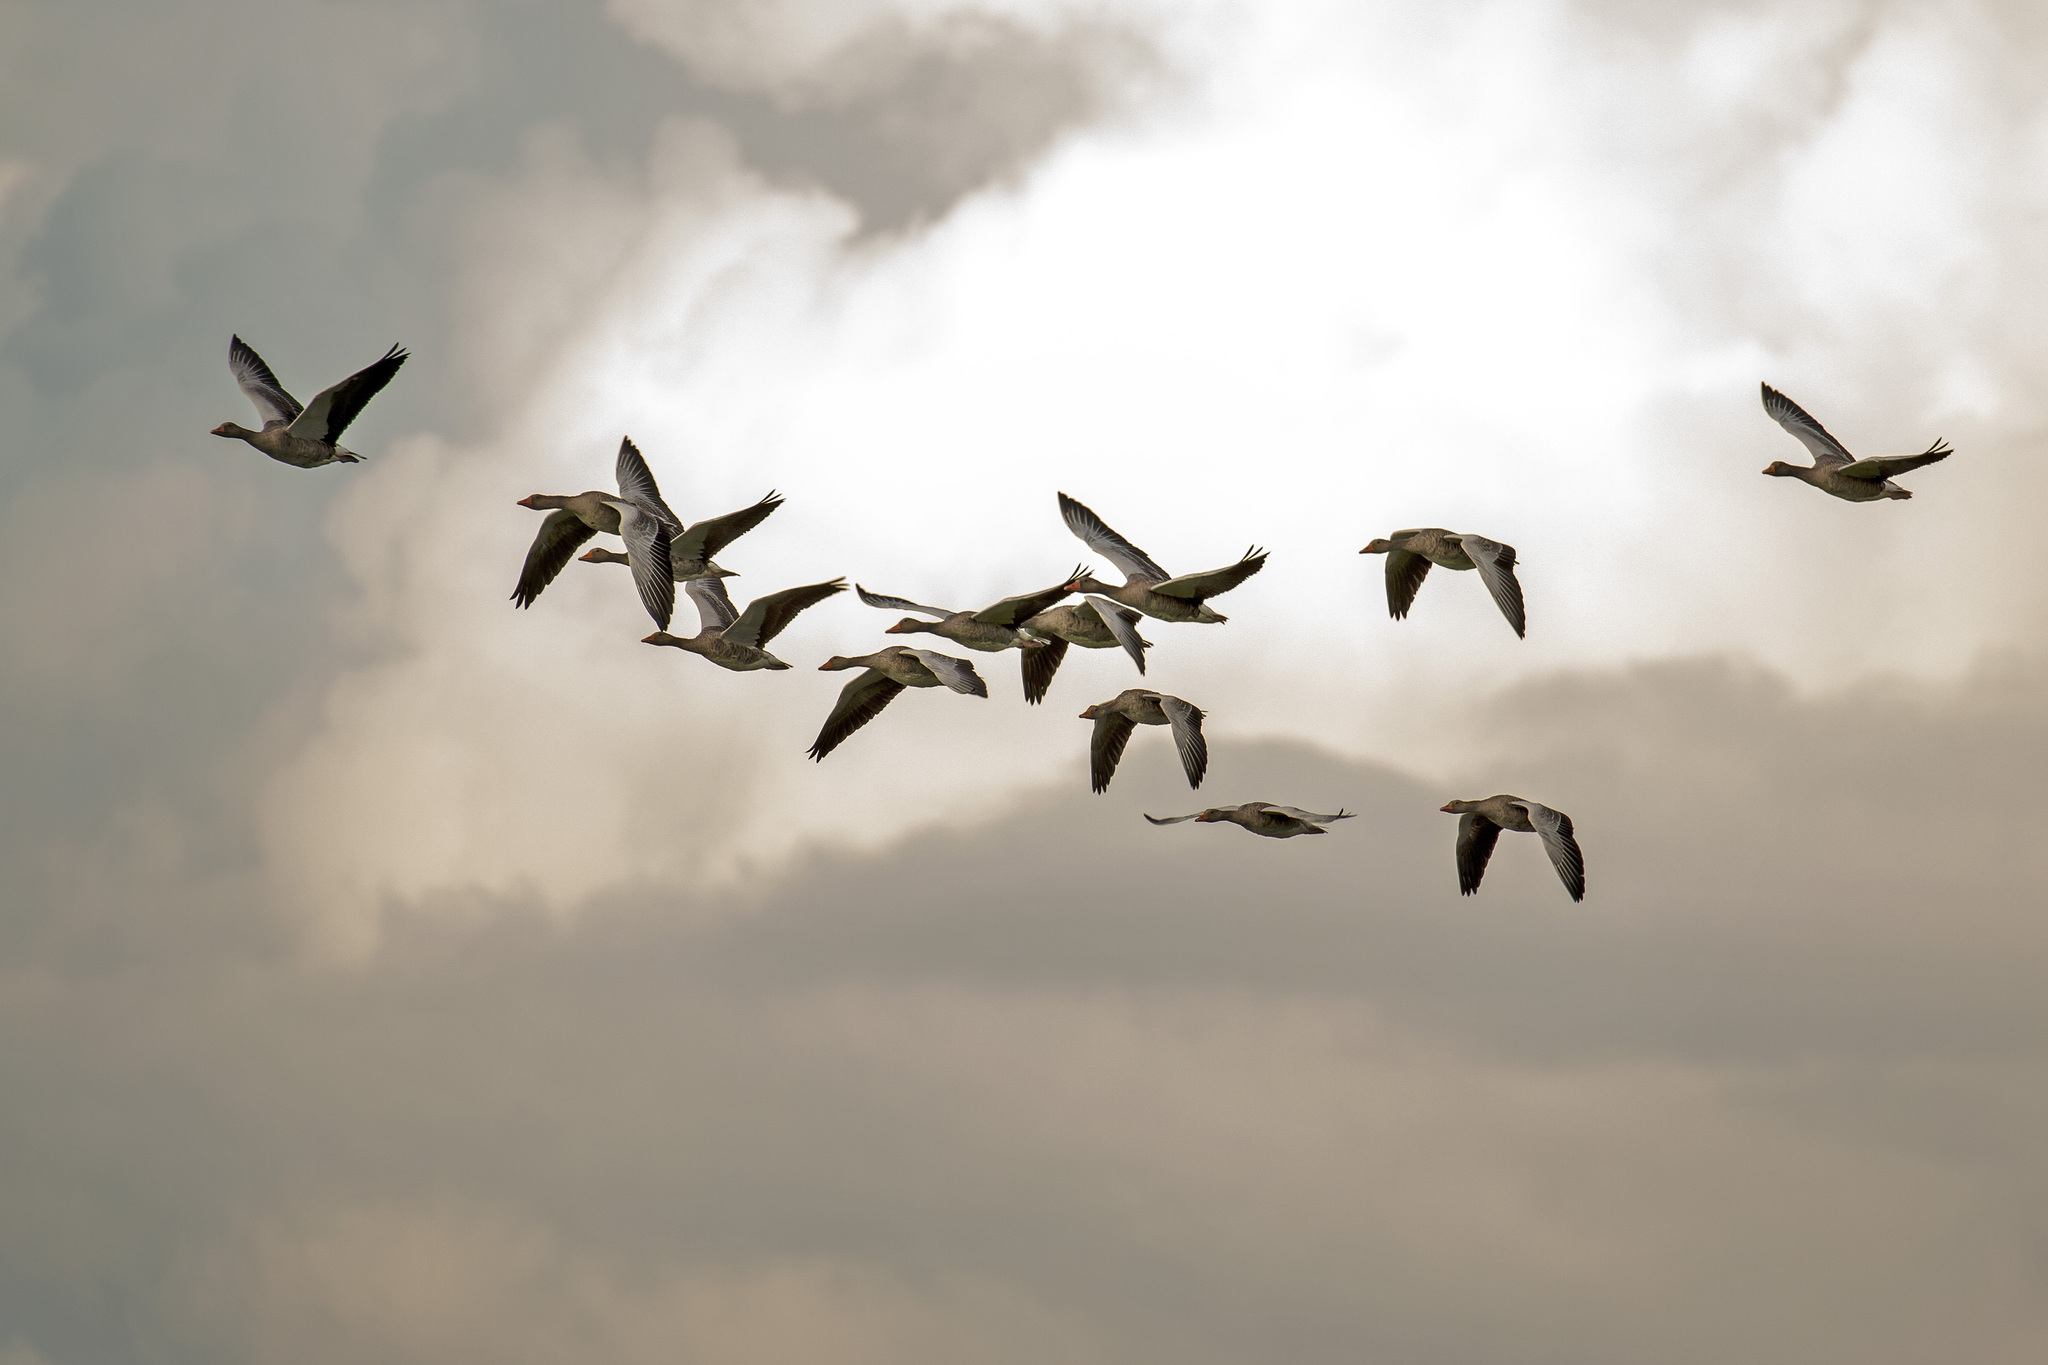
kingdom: Animalia
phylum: Chordata
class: Aves
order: Anseriformes
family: Anatidae
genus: Anser
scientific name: Anser anser
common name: Greylag goose
